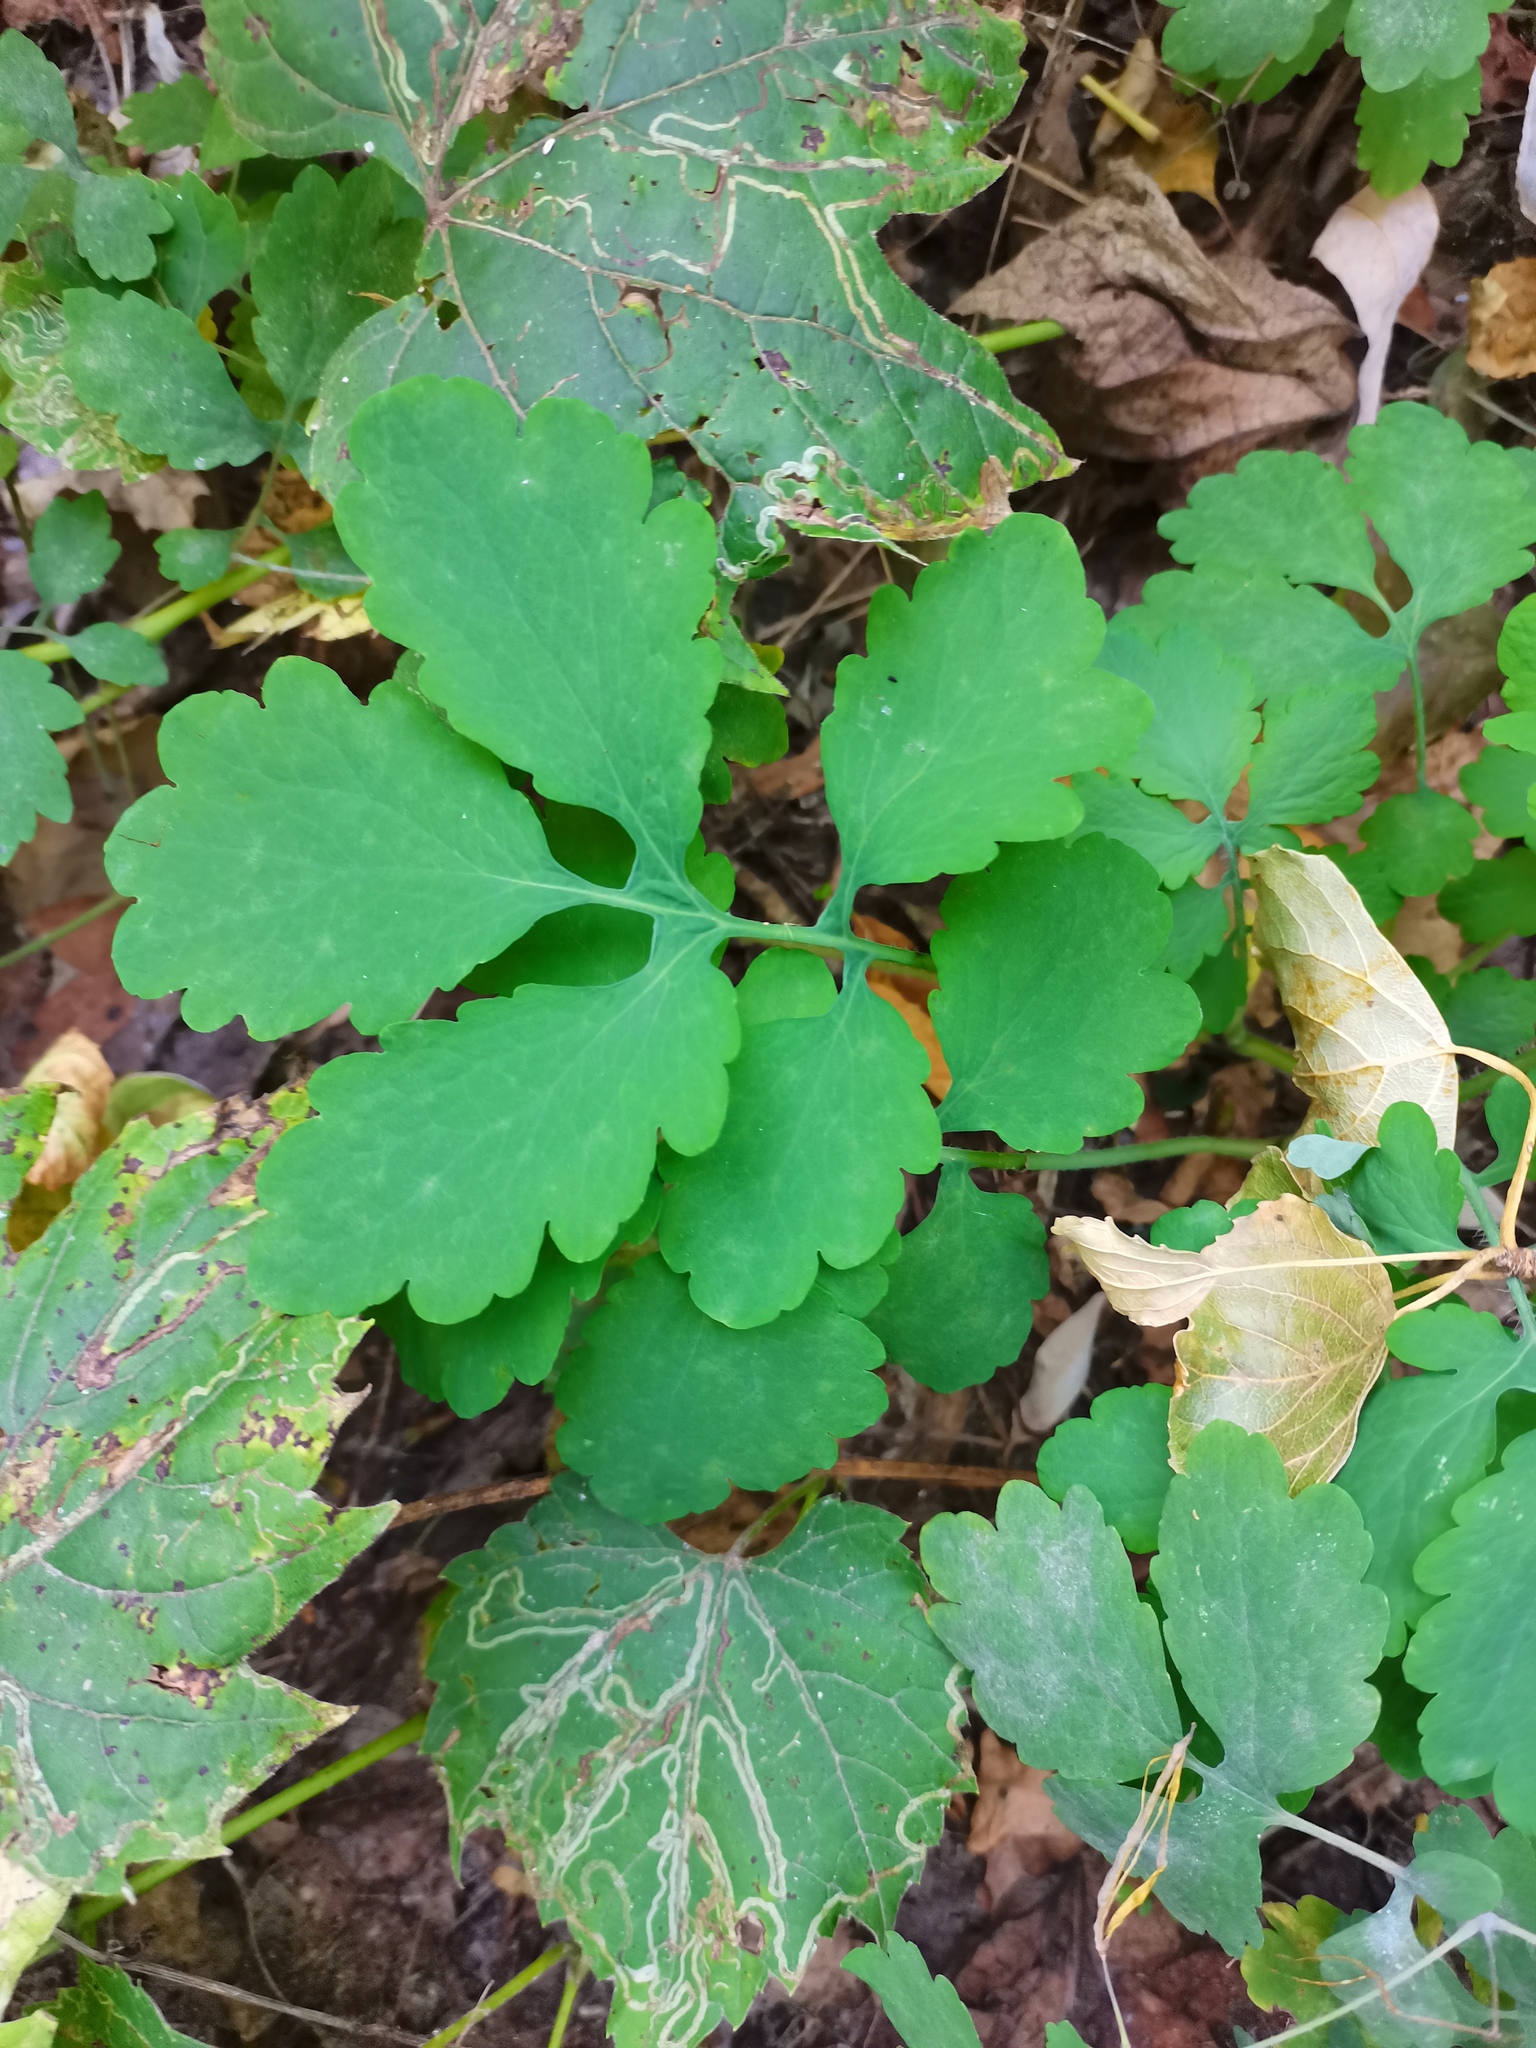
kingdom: Plantae
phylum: Tracheophyta
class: Magnoliopsida
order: Ranunculales
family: Papaveraceae
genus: Chelidonium
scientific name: Chelidonium majus
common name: Greater celandine
